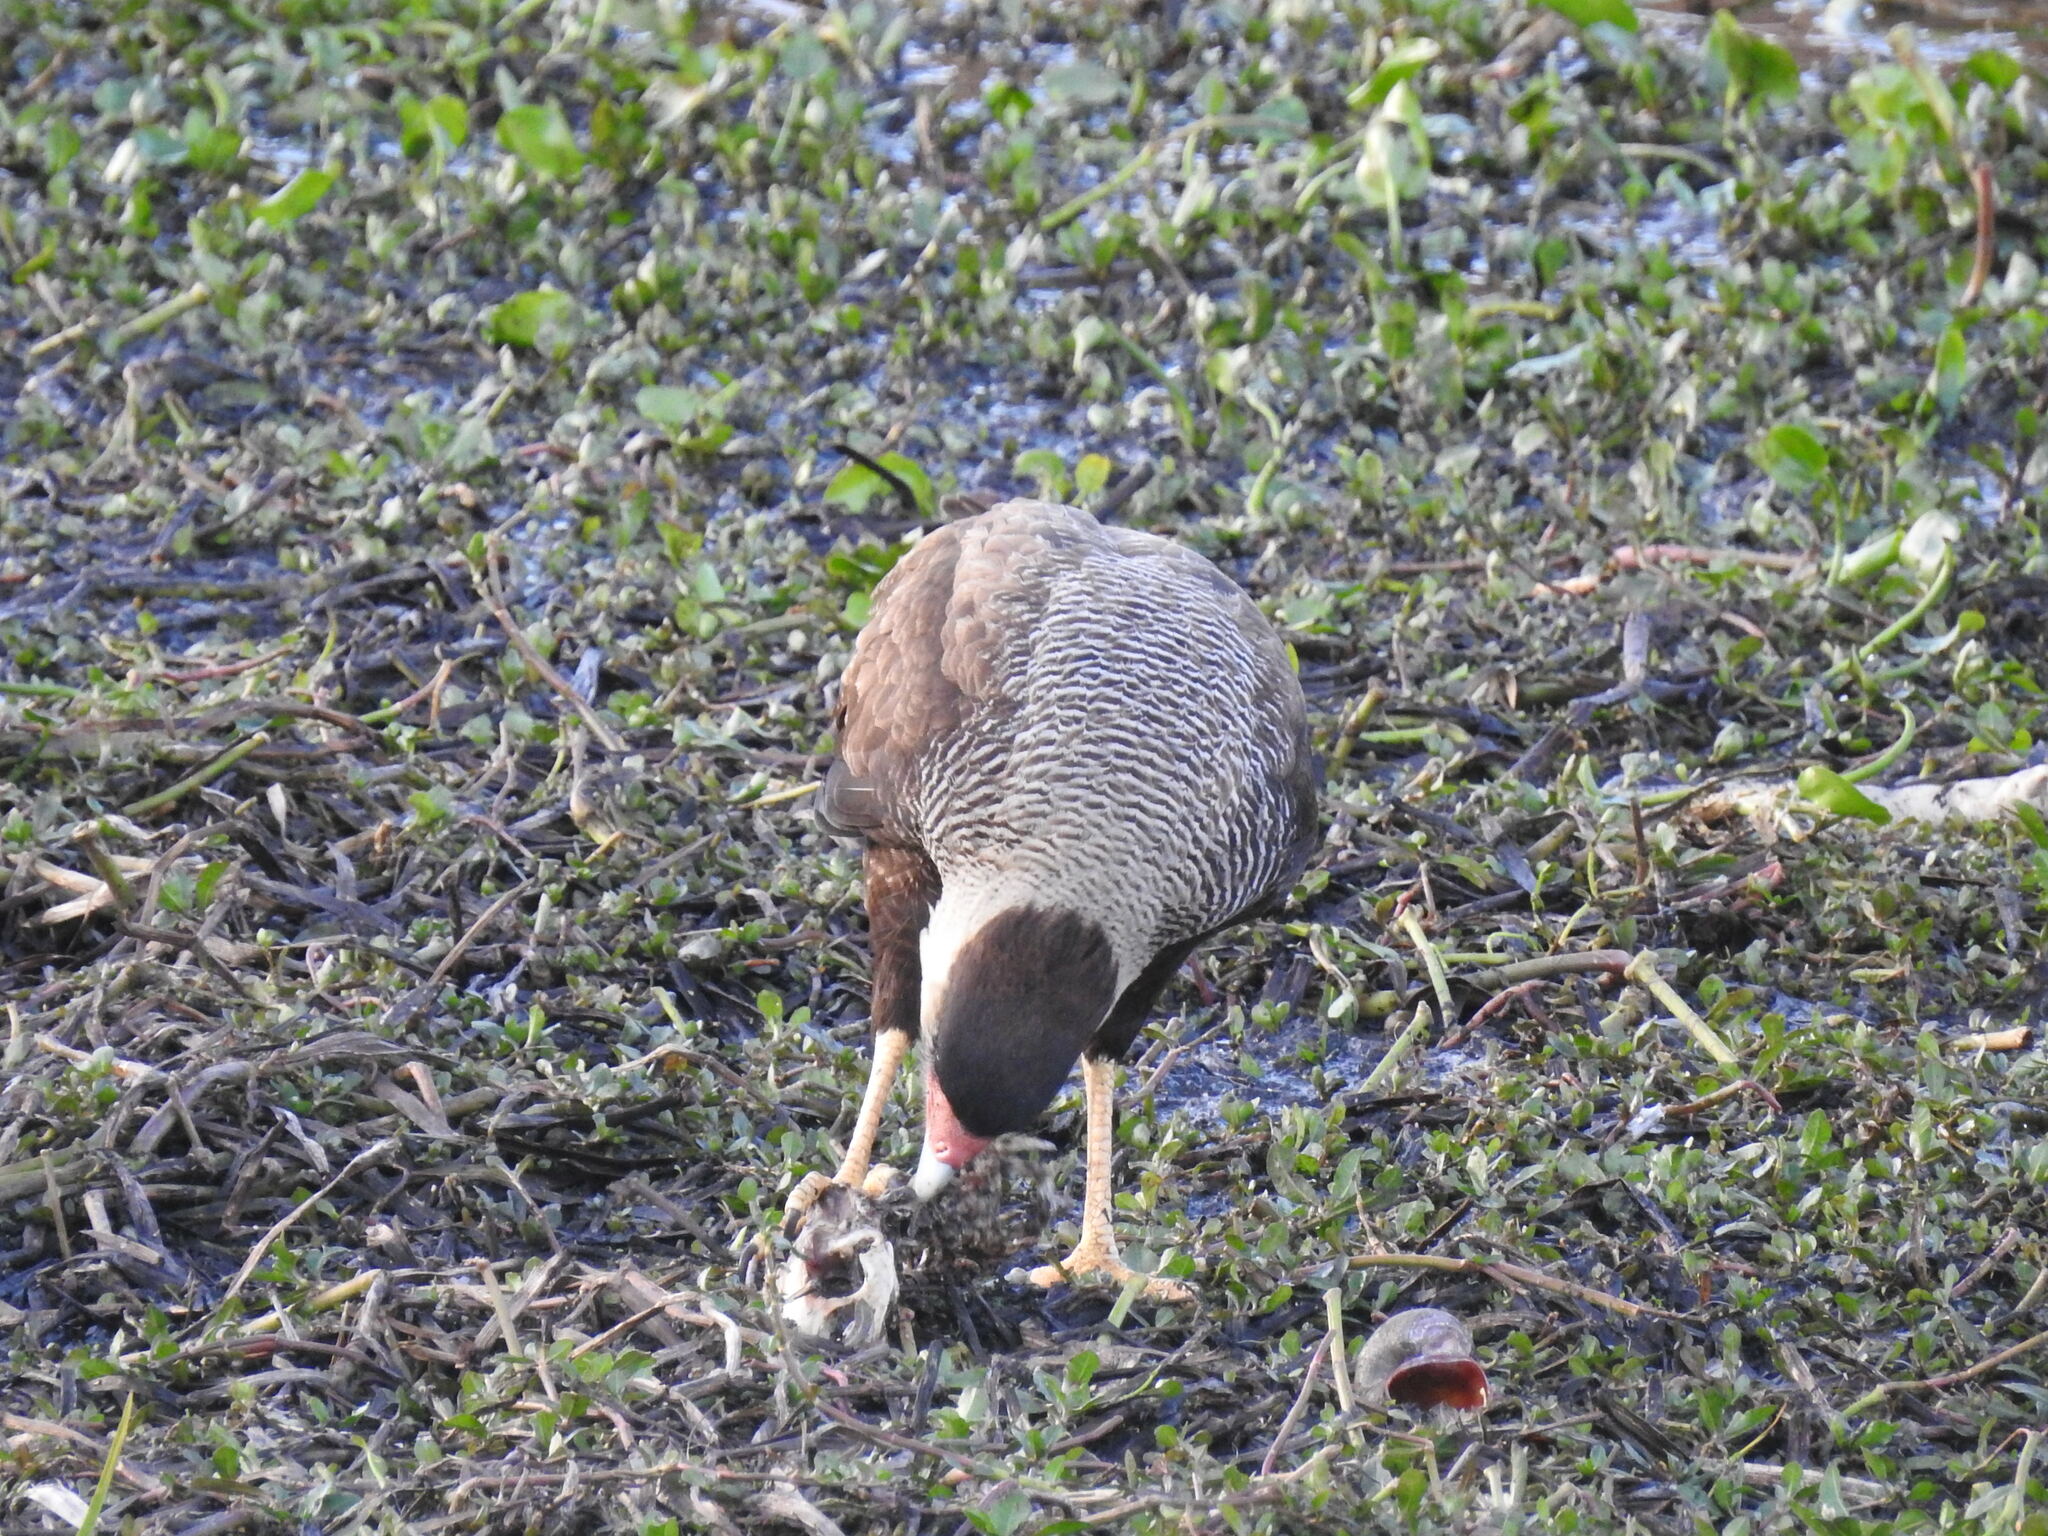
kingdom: Animalia
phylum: Chordata
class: Mammalia
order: Rodentia
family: Myocastoridae
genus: Myocastor
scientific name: Myocastor coypus
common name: Coypu
